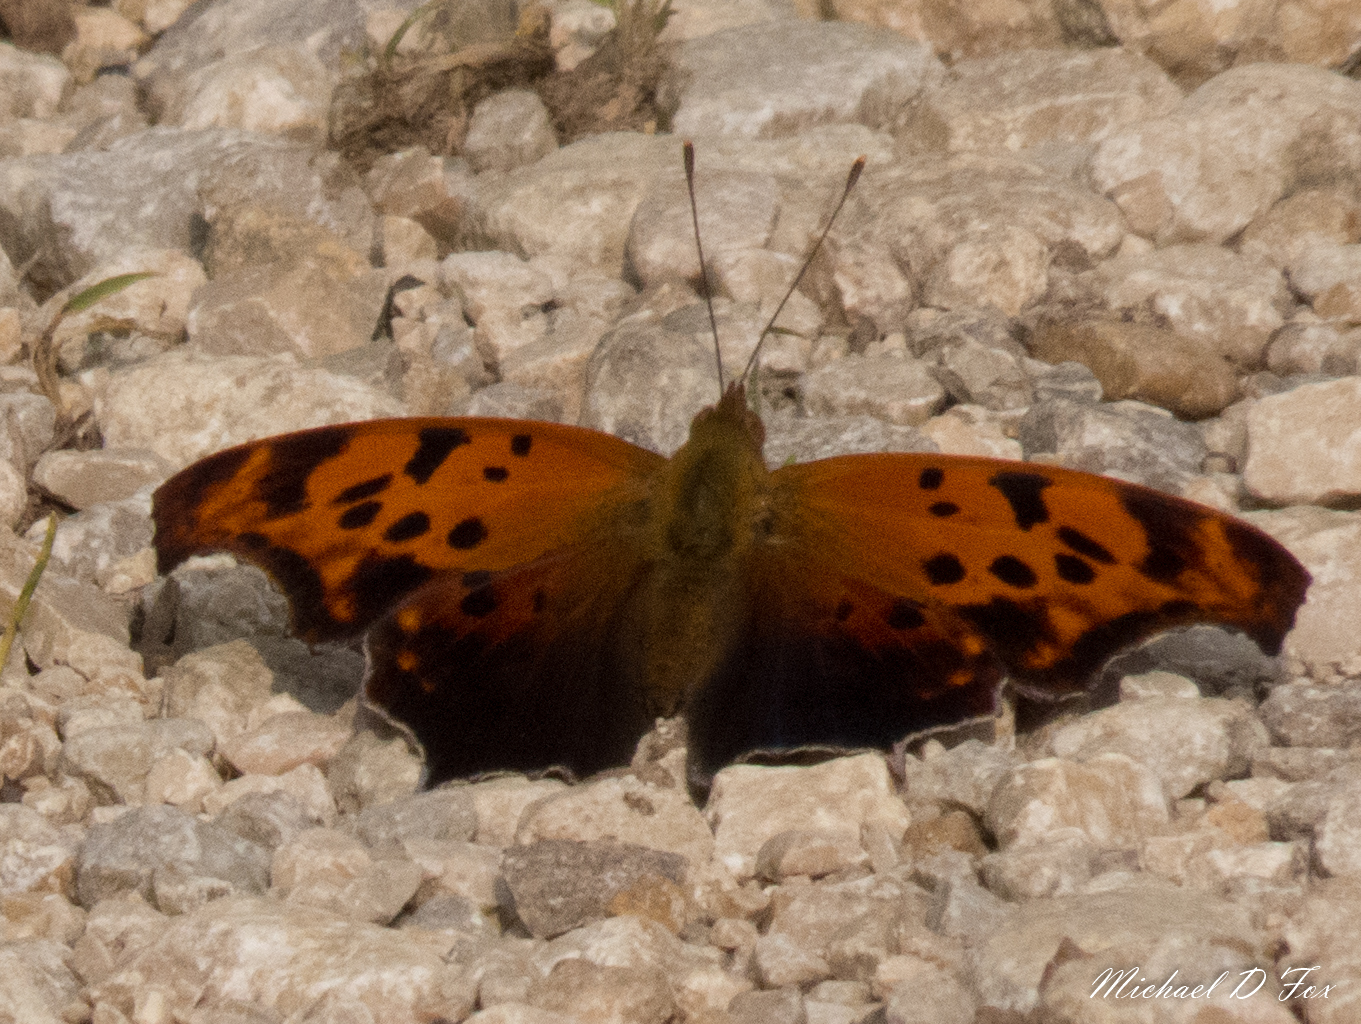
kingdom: Animalia
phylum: Arthropoda
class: Insecta
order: Lepidoptera
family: Nymphalidae
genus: Polygonia
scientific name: Polygonia interrogationis
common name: Question mark
